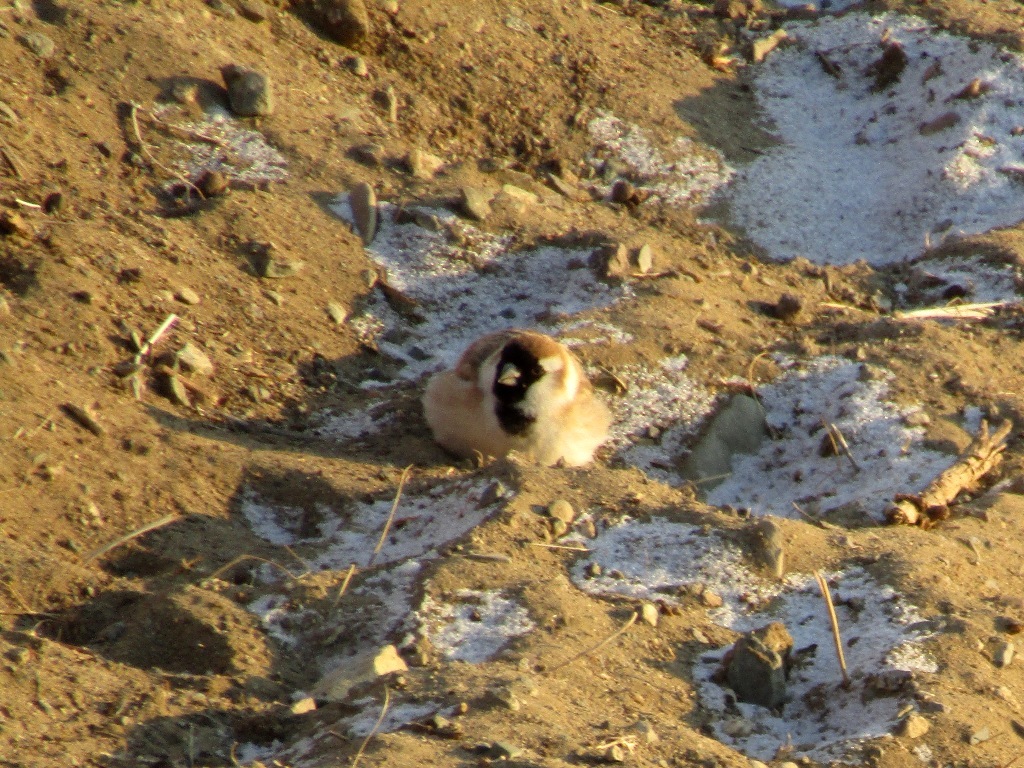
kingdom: Animalia
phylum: Chordata
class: Aves
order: Passeriformes
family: Passeridae
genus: Pyrgilauda
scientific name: Pyrgilauda davidiana
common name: Pere david's snowfinch
